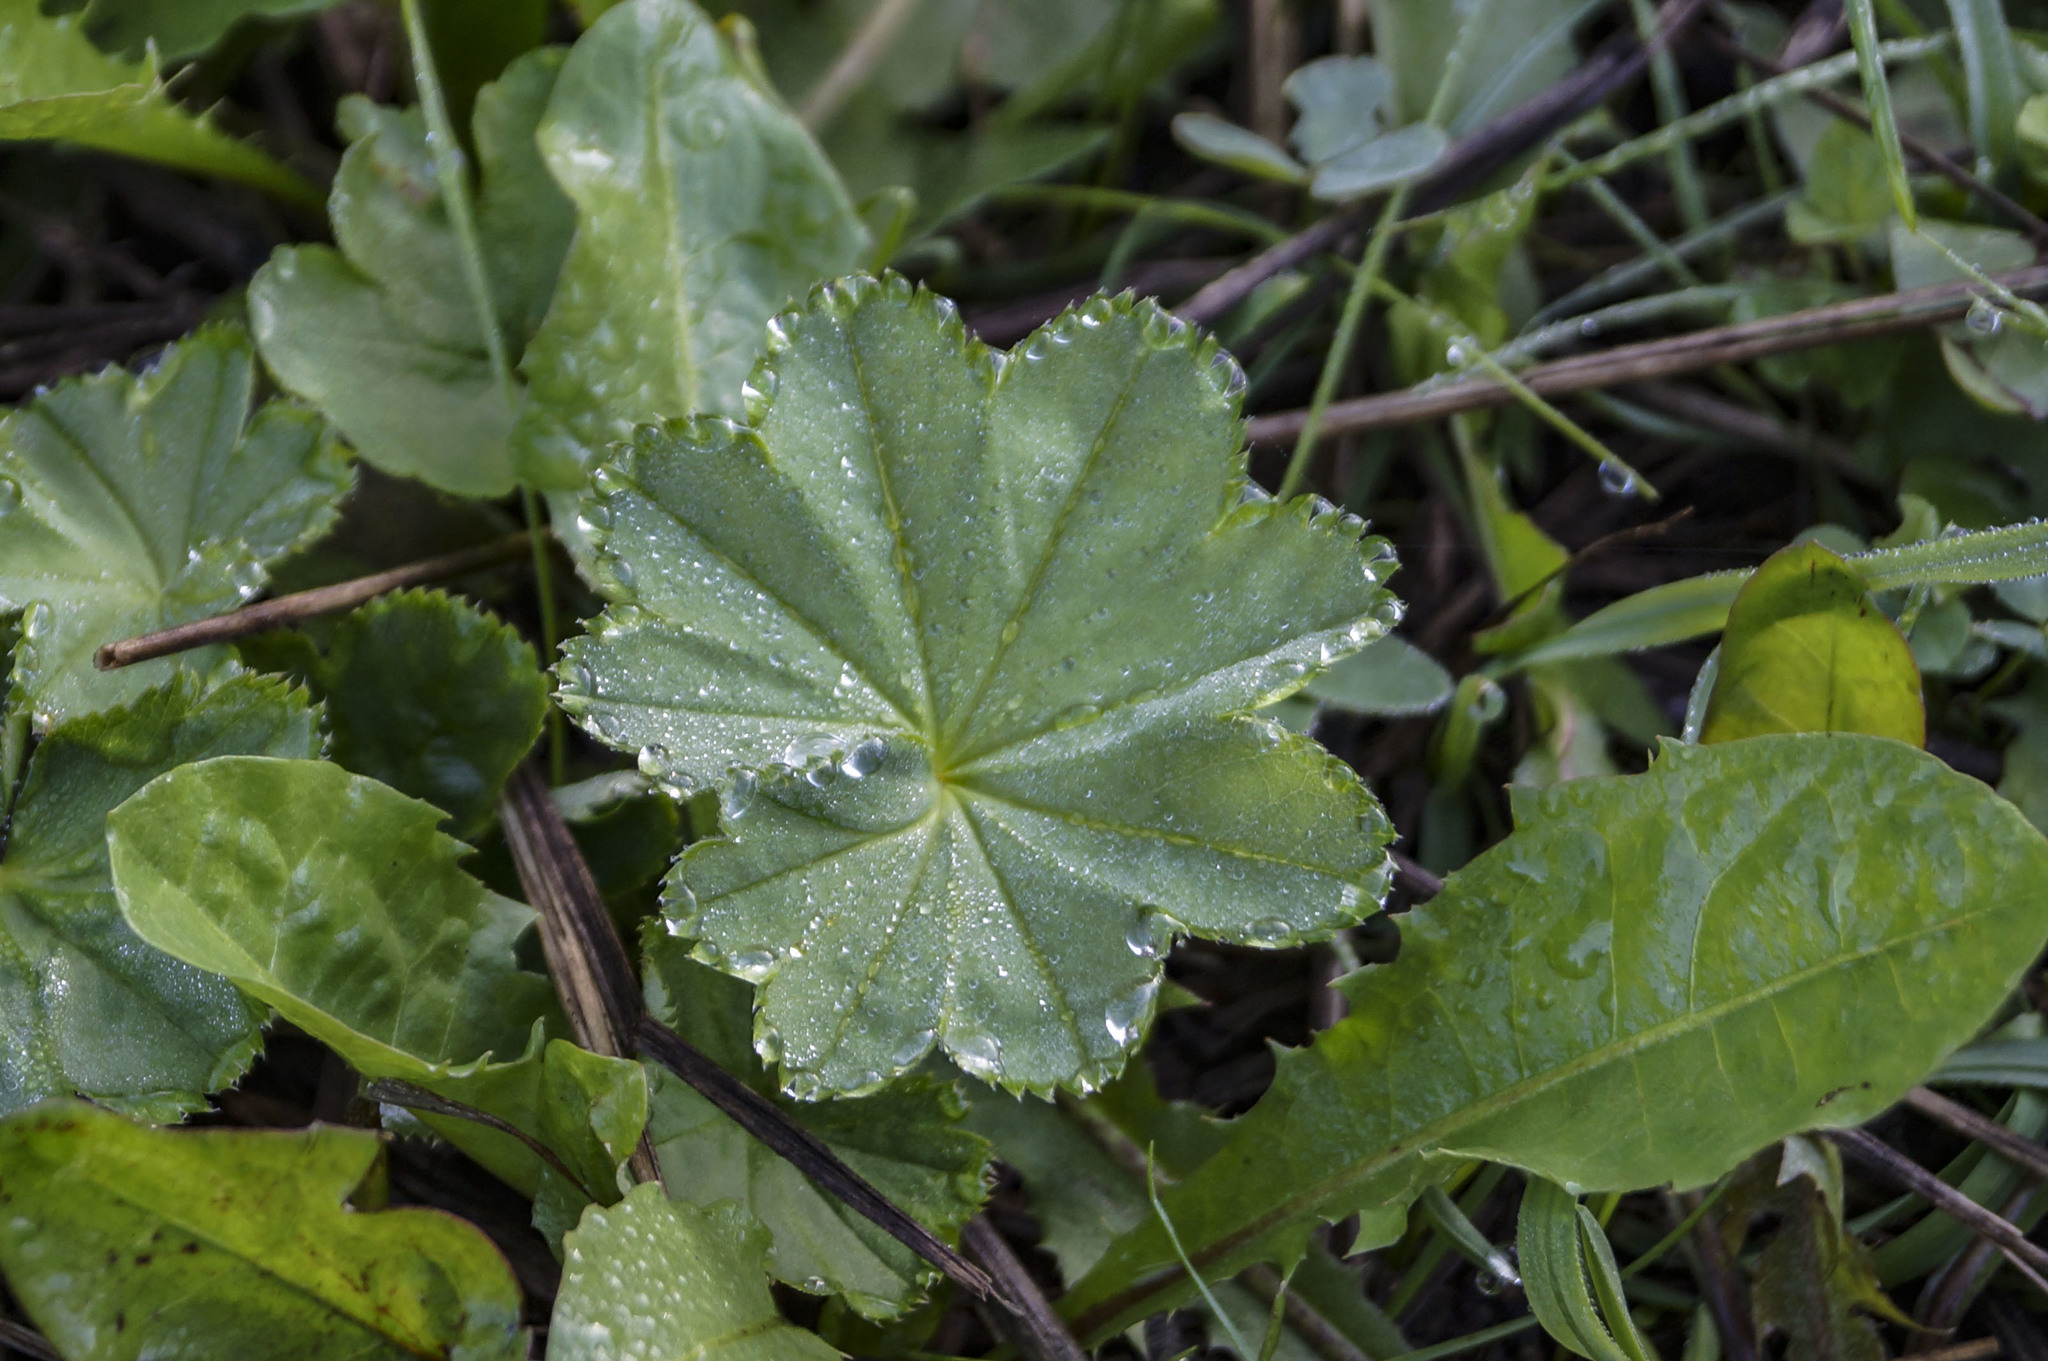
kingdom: Plantae
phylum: Tracheophyta
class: Magnoliopsida
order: Rosales
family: Rosaceae
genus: Alchemilla
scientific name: Alchemilla
